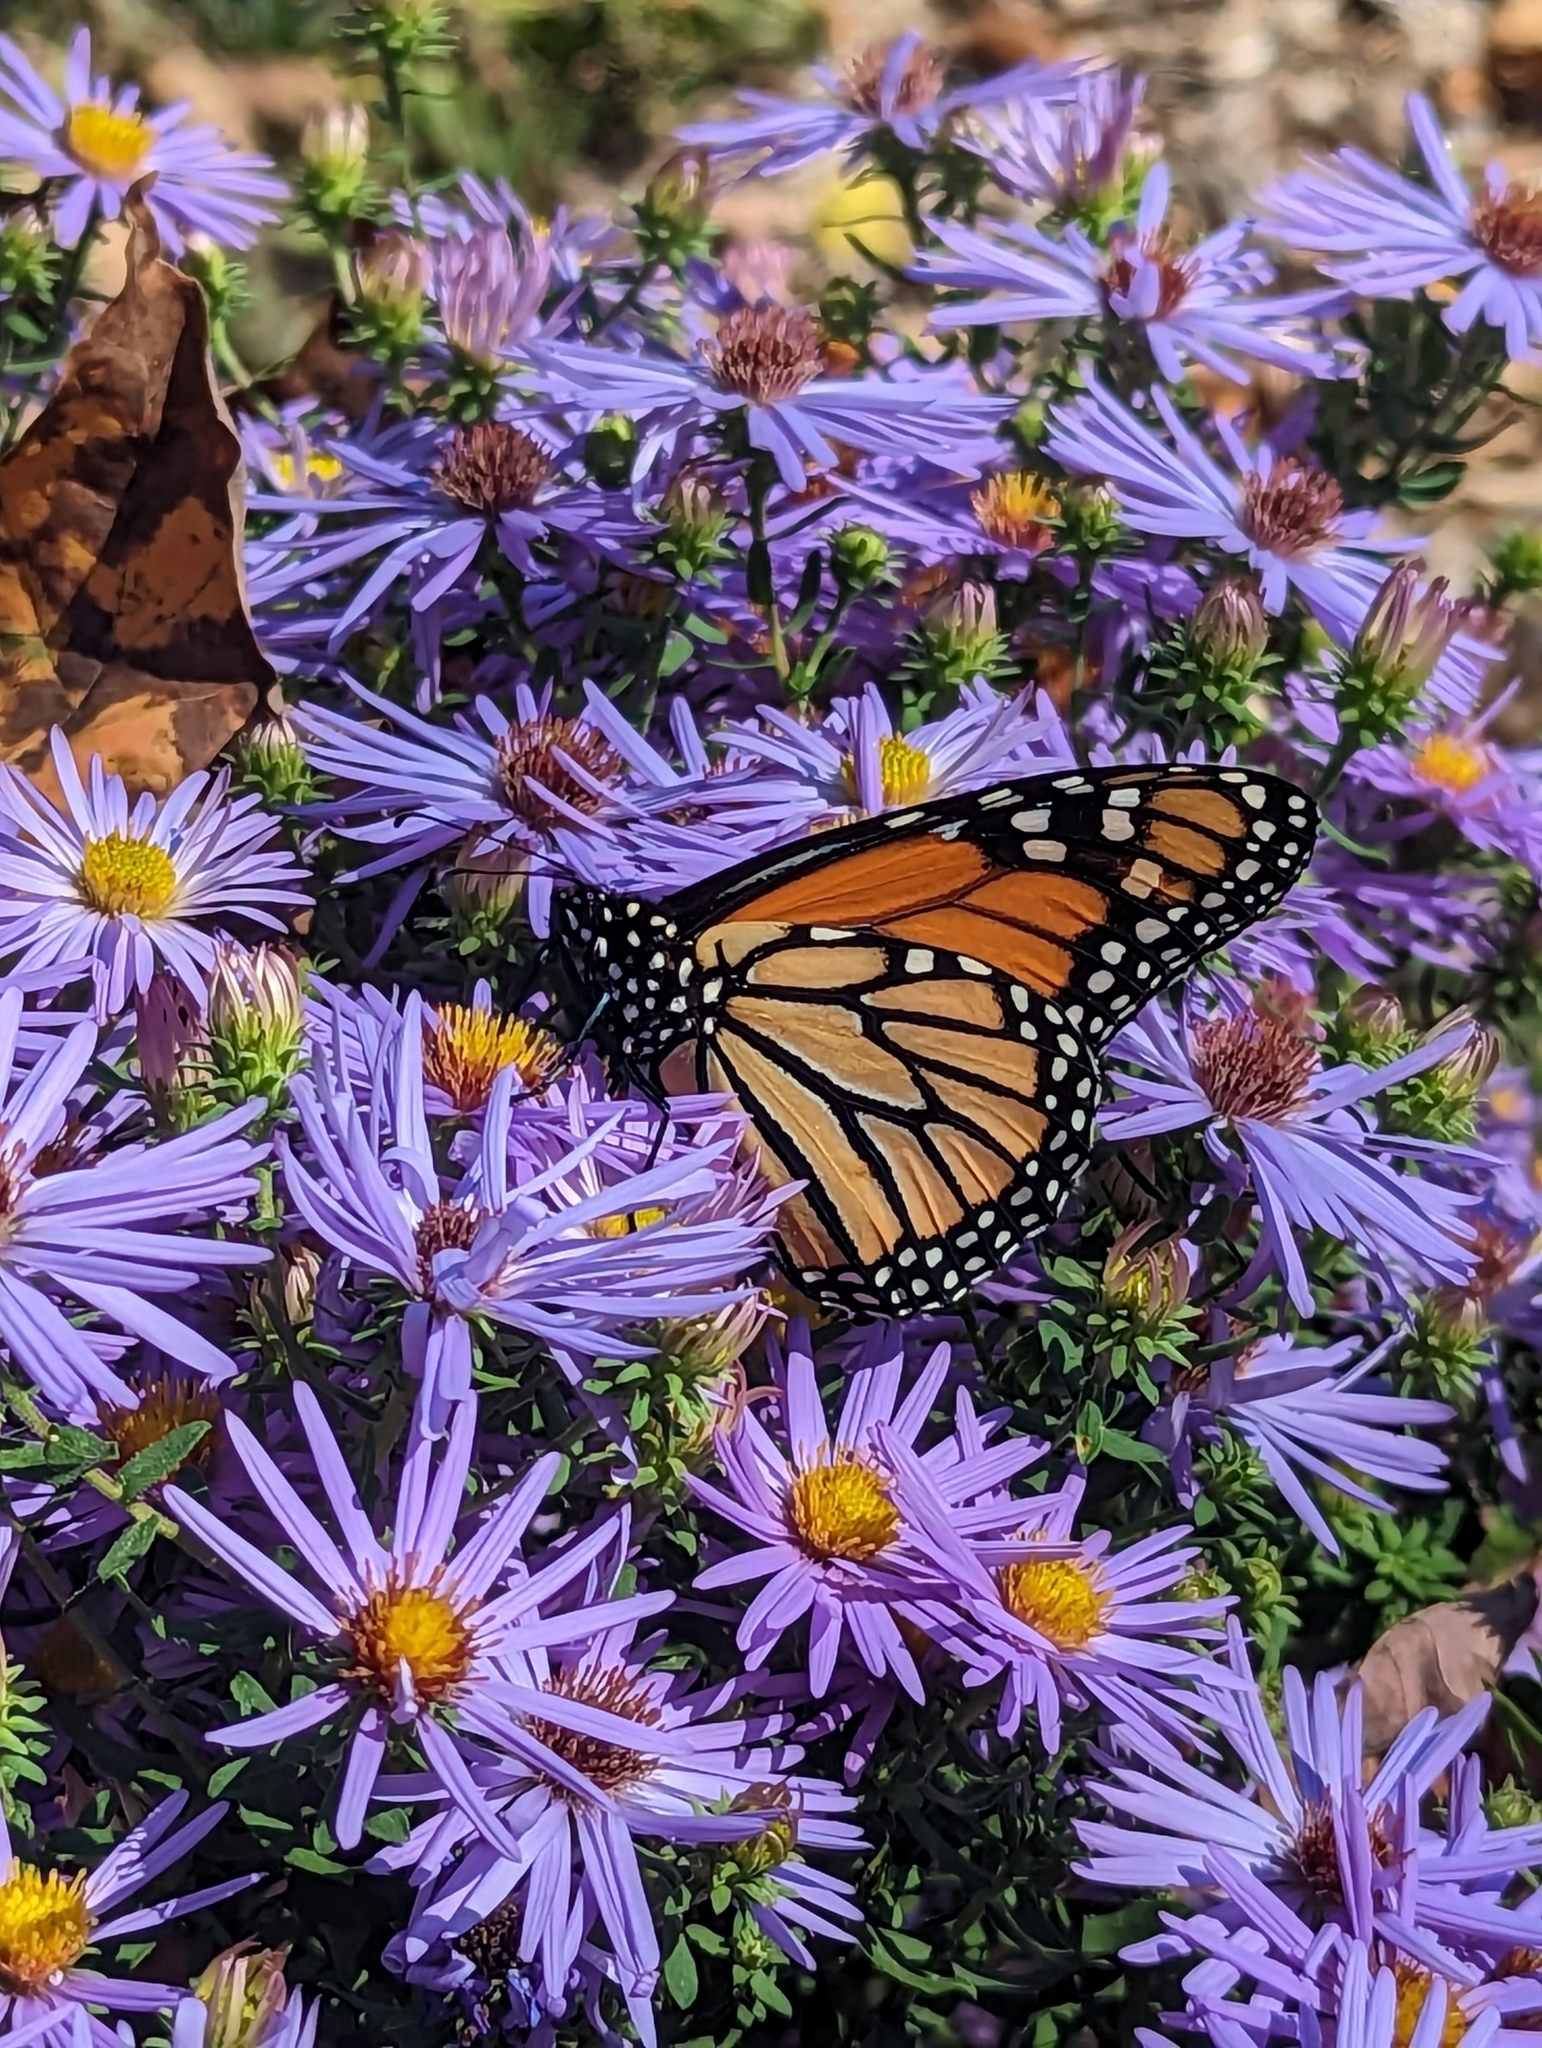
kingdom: Animalia
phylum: Arthropoda
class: Insecta
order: Lepidoptera
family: Nymphalidae
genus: Danaus
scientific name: Danaus plexippus
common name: Monarch
